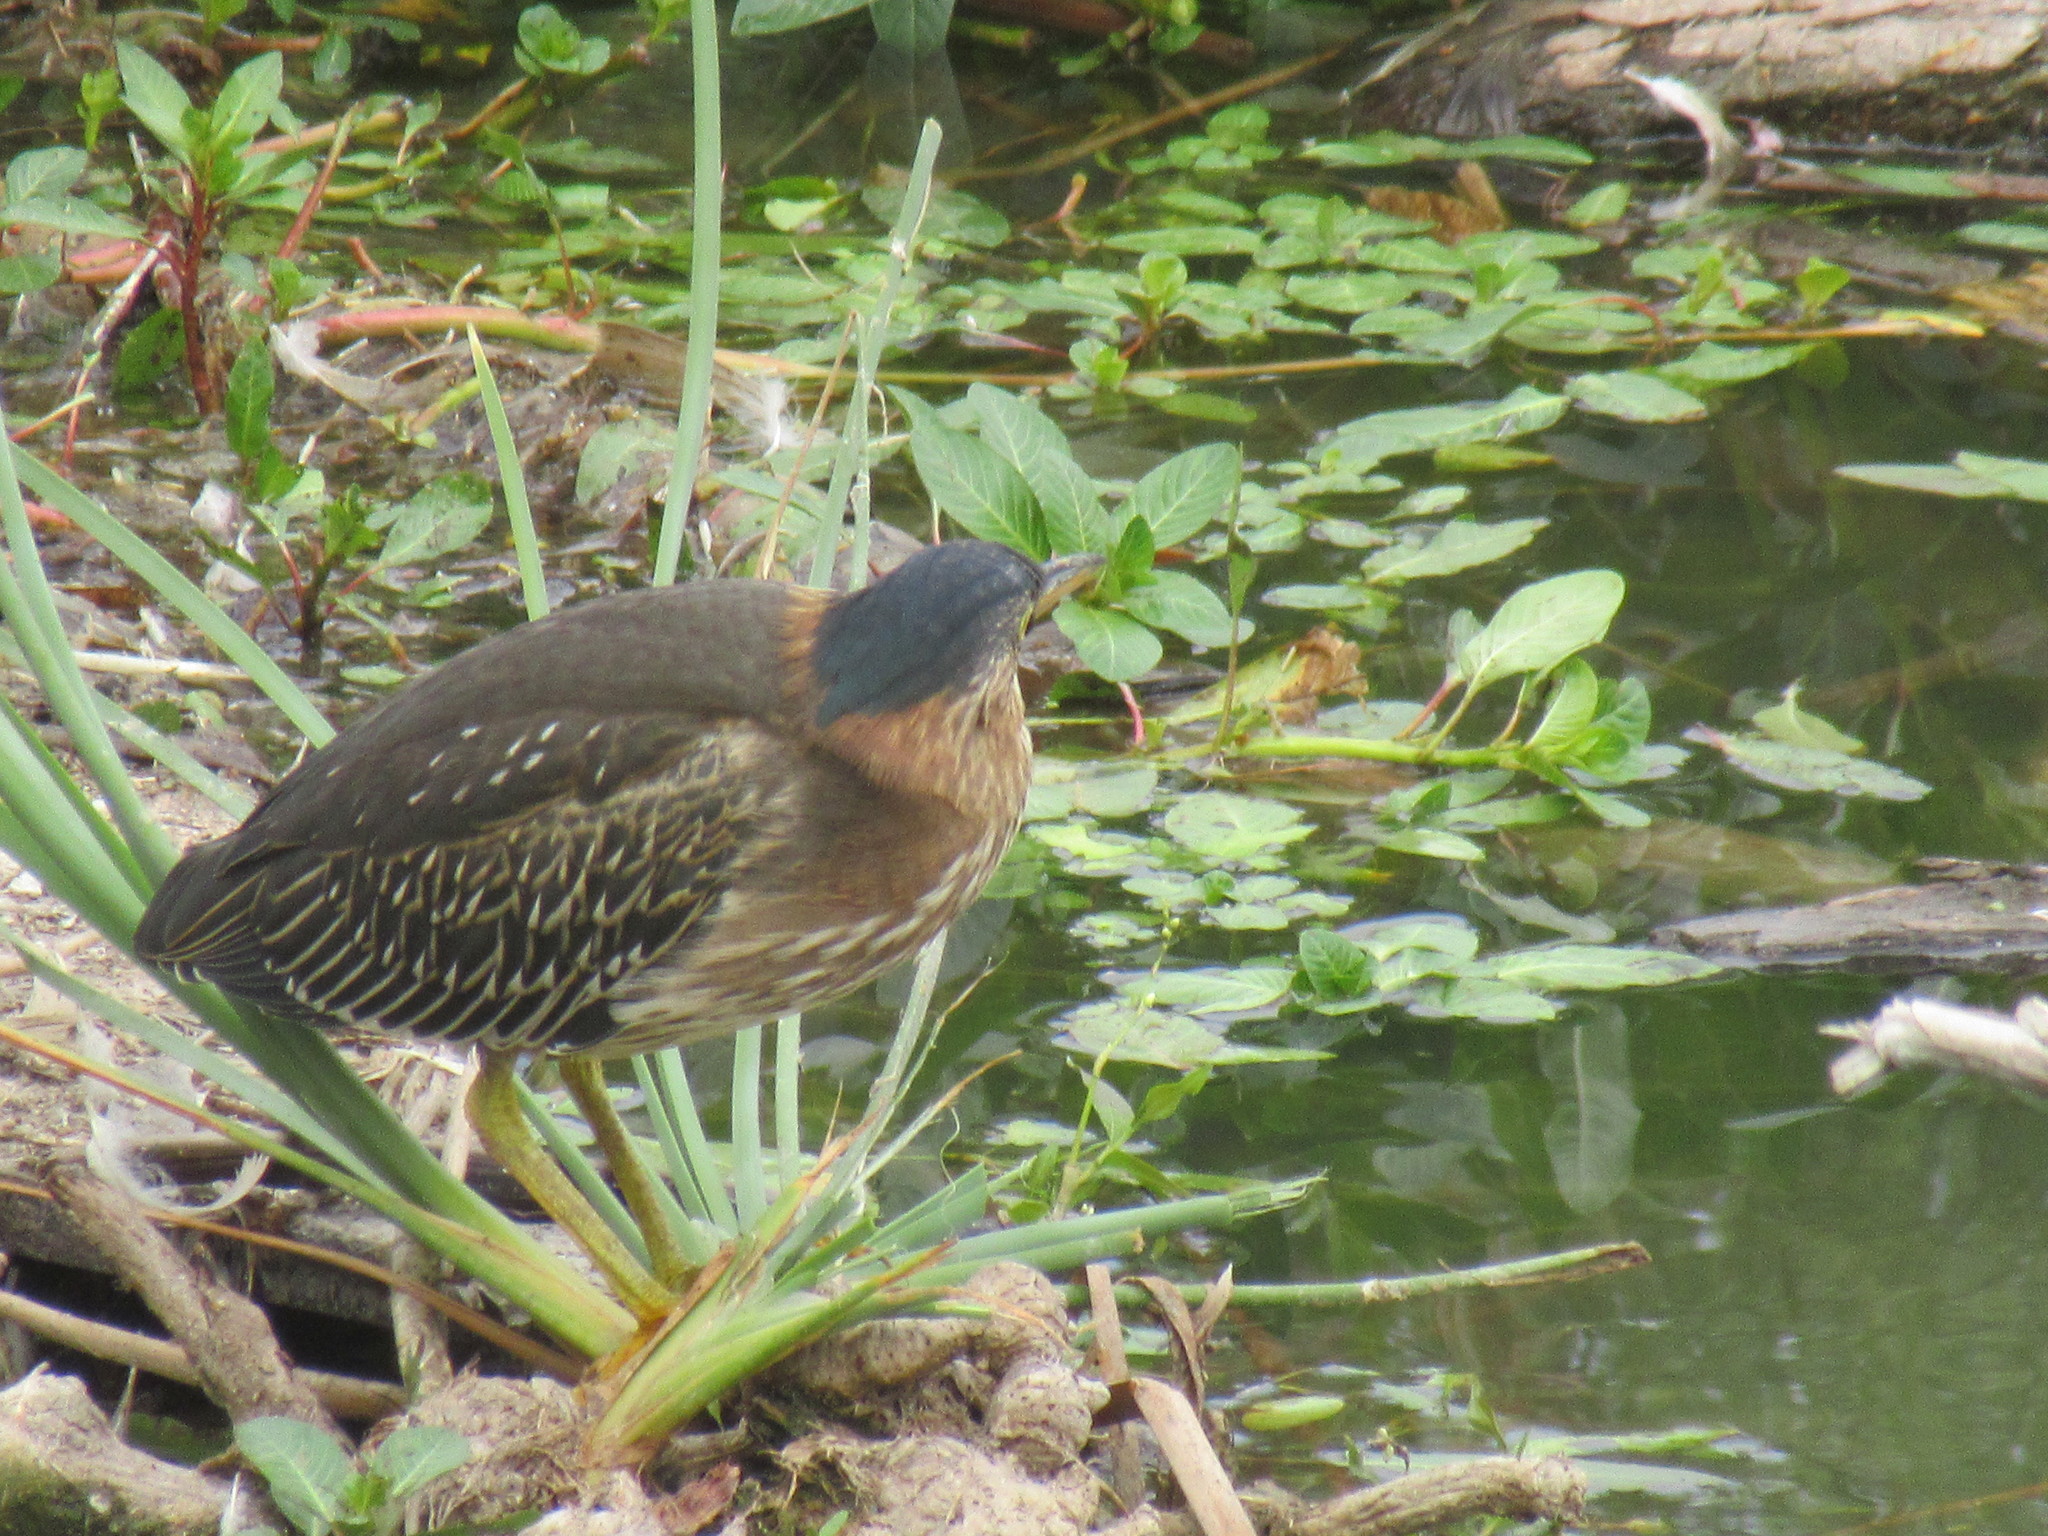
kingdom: Animalia
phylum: Chordata
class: Aves
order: Pelecaniformes
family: Ardeidae
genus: Butorides
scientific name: Butorides virescens
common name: Green heron
